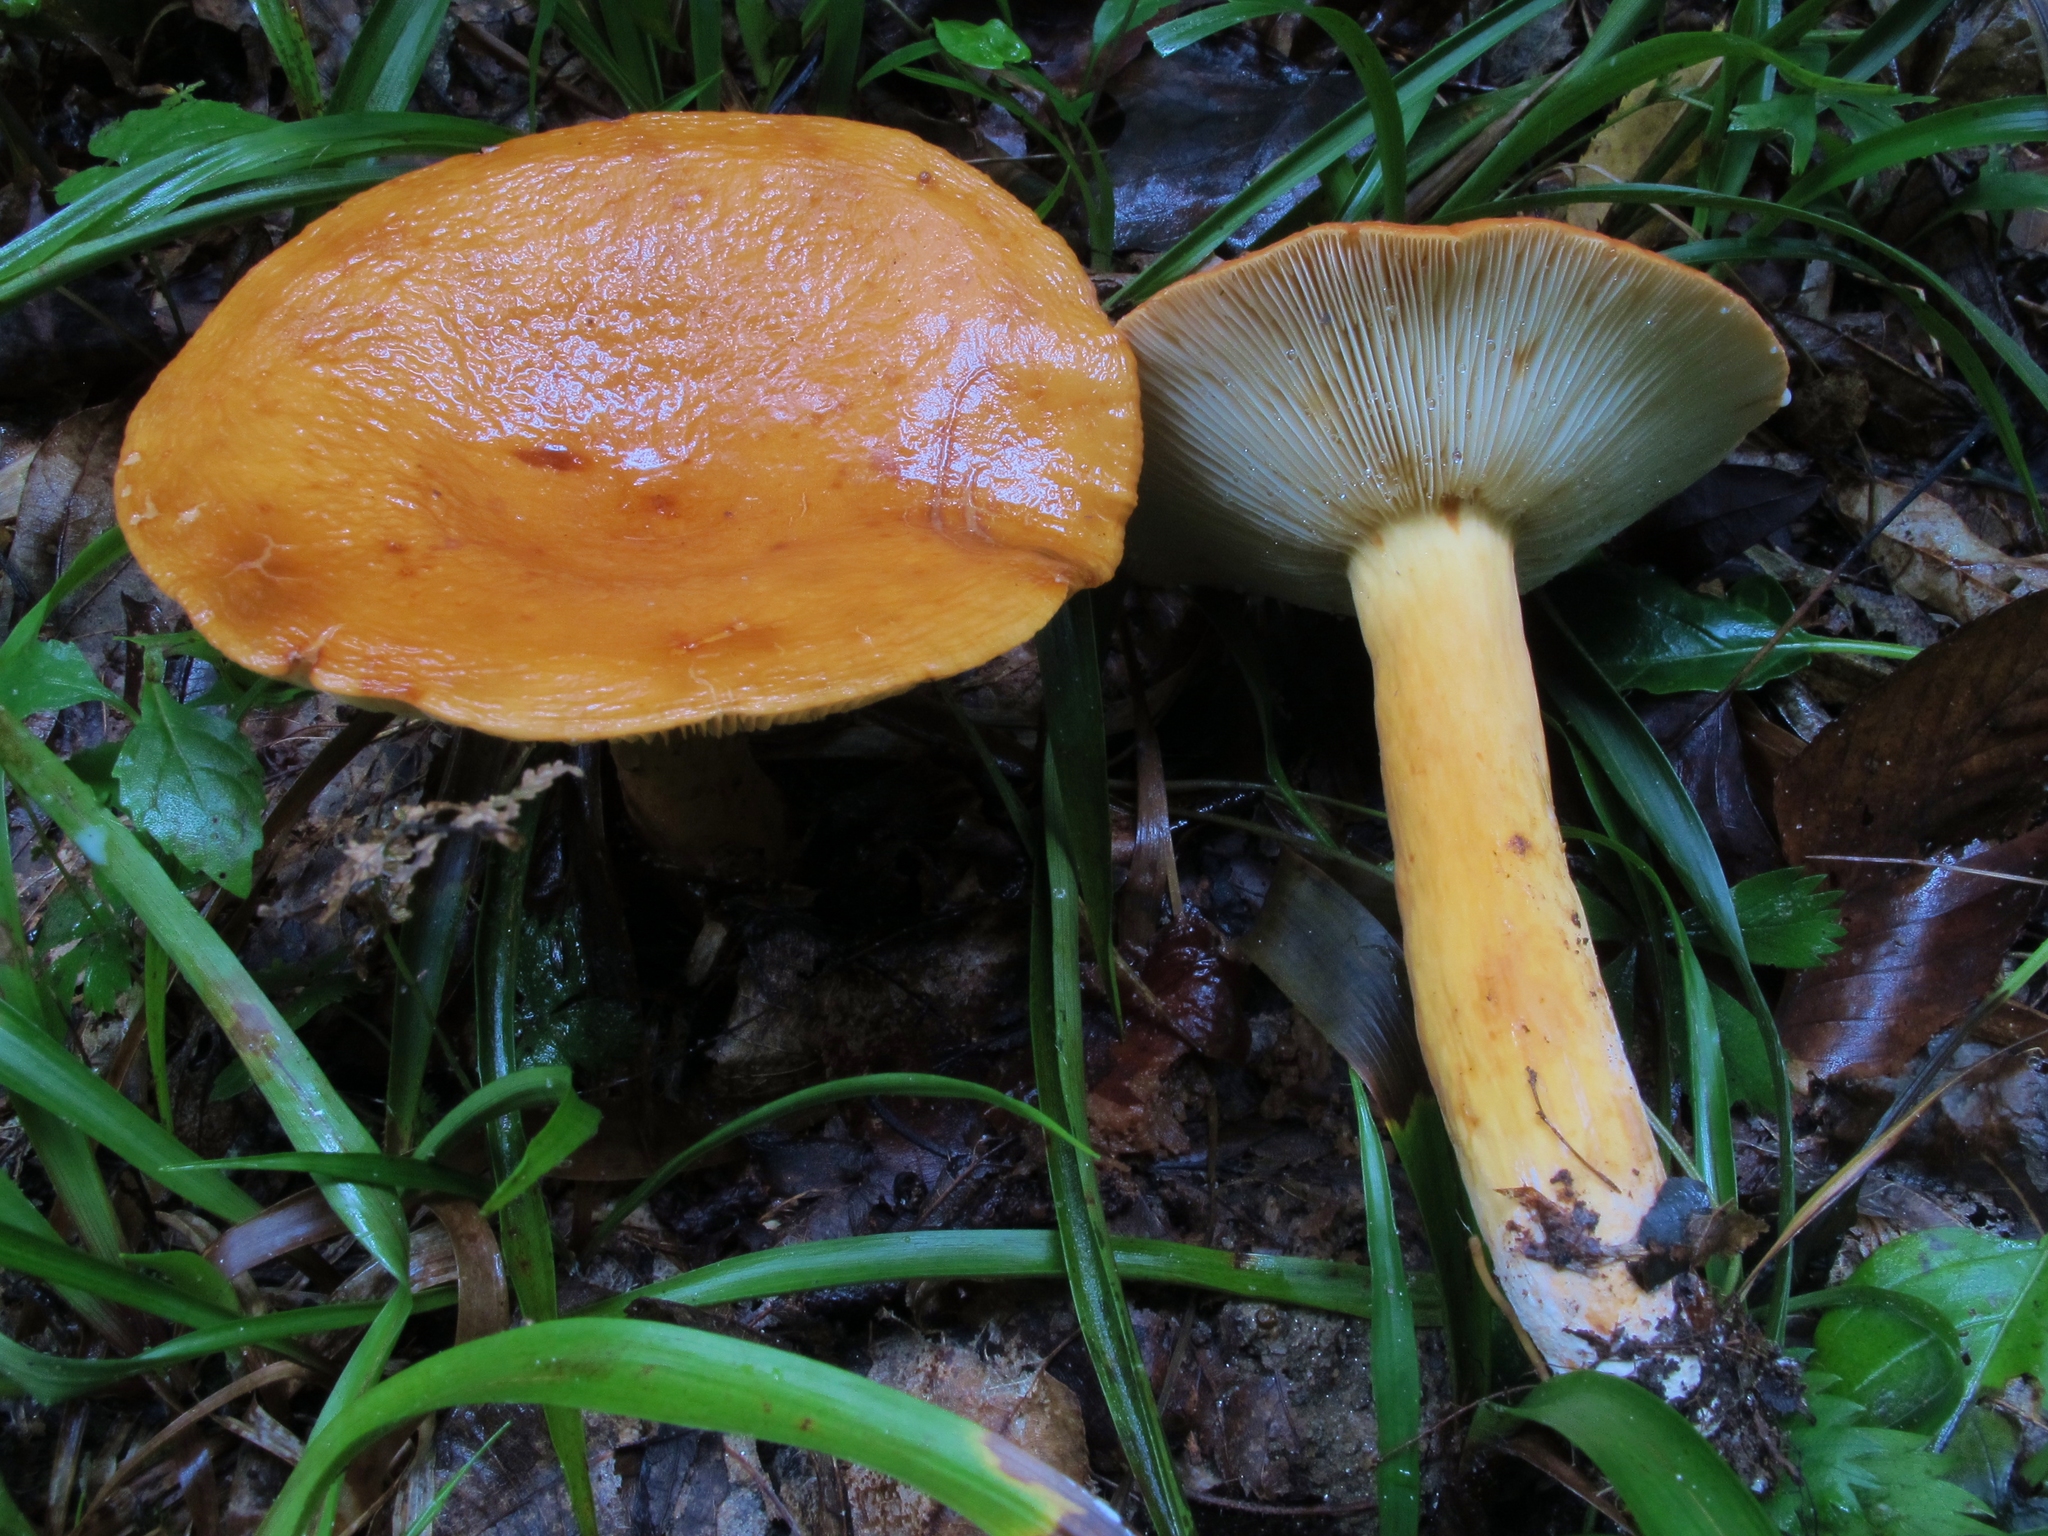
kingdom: Fungi
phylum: Basidiomycota
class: Agaricomycetes
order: Russulales
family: Russulaceae
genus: Lactifluus
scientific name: Lactifluus volemus
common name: Fishy milkcap
